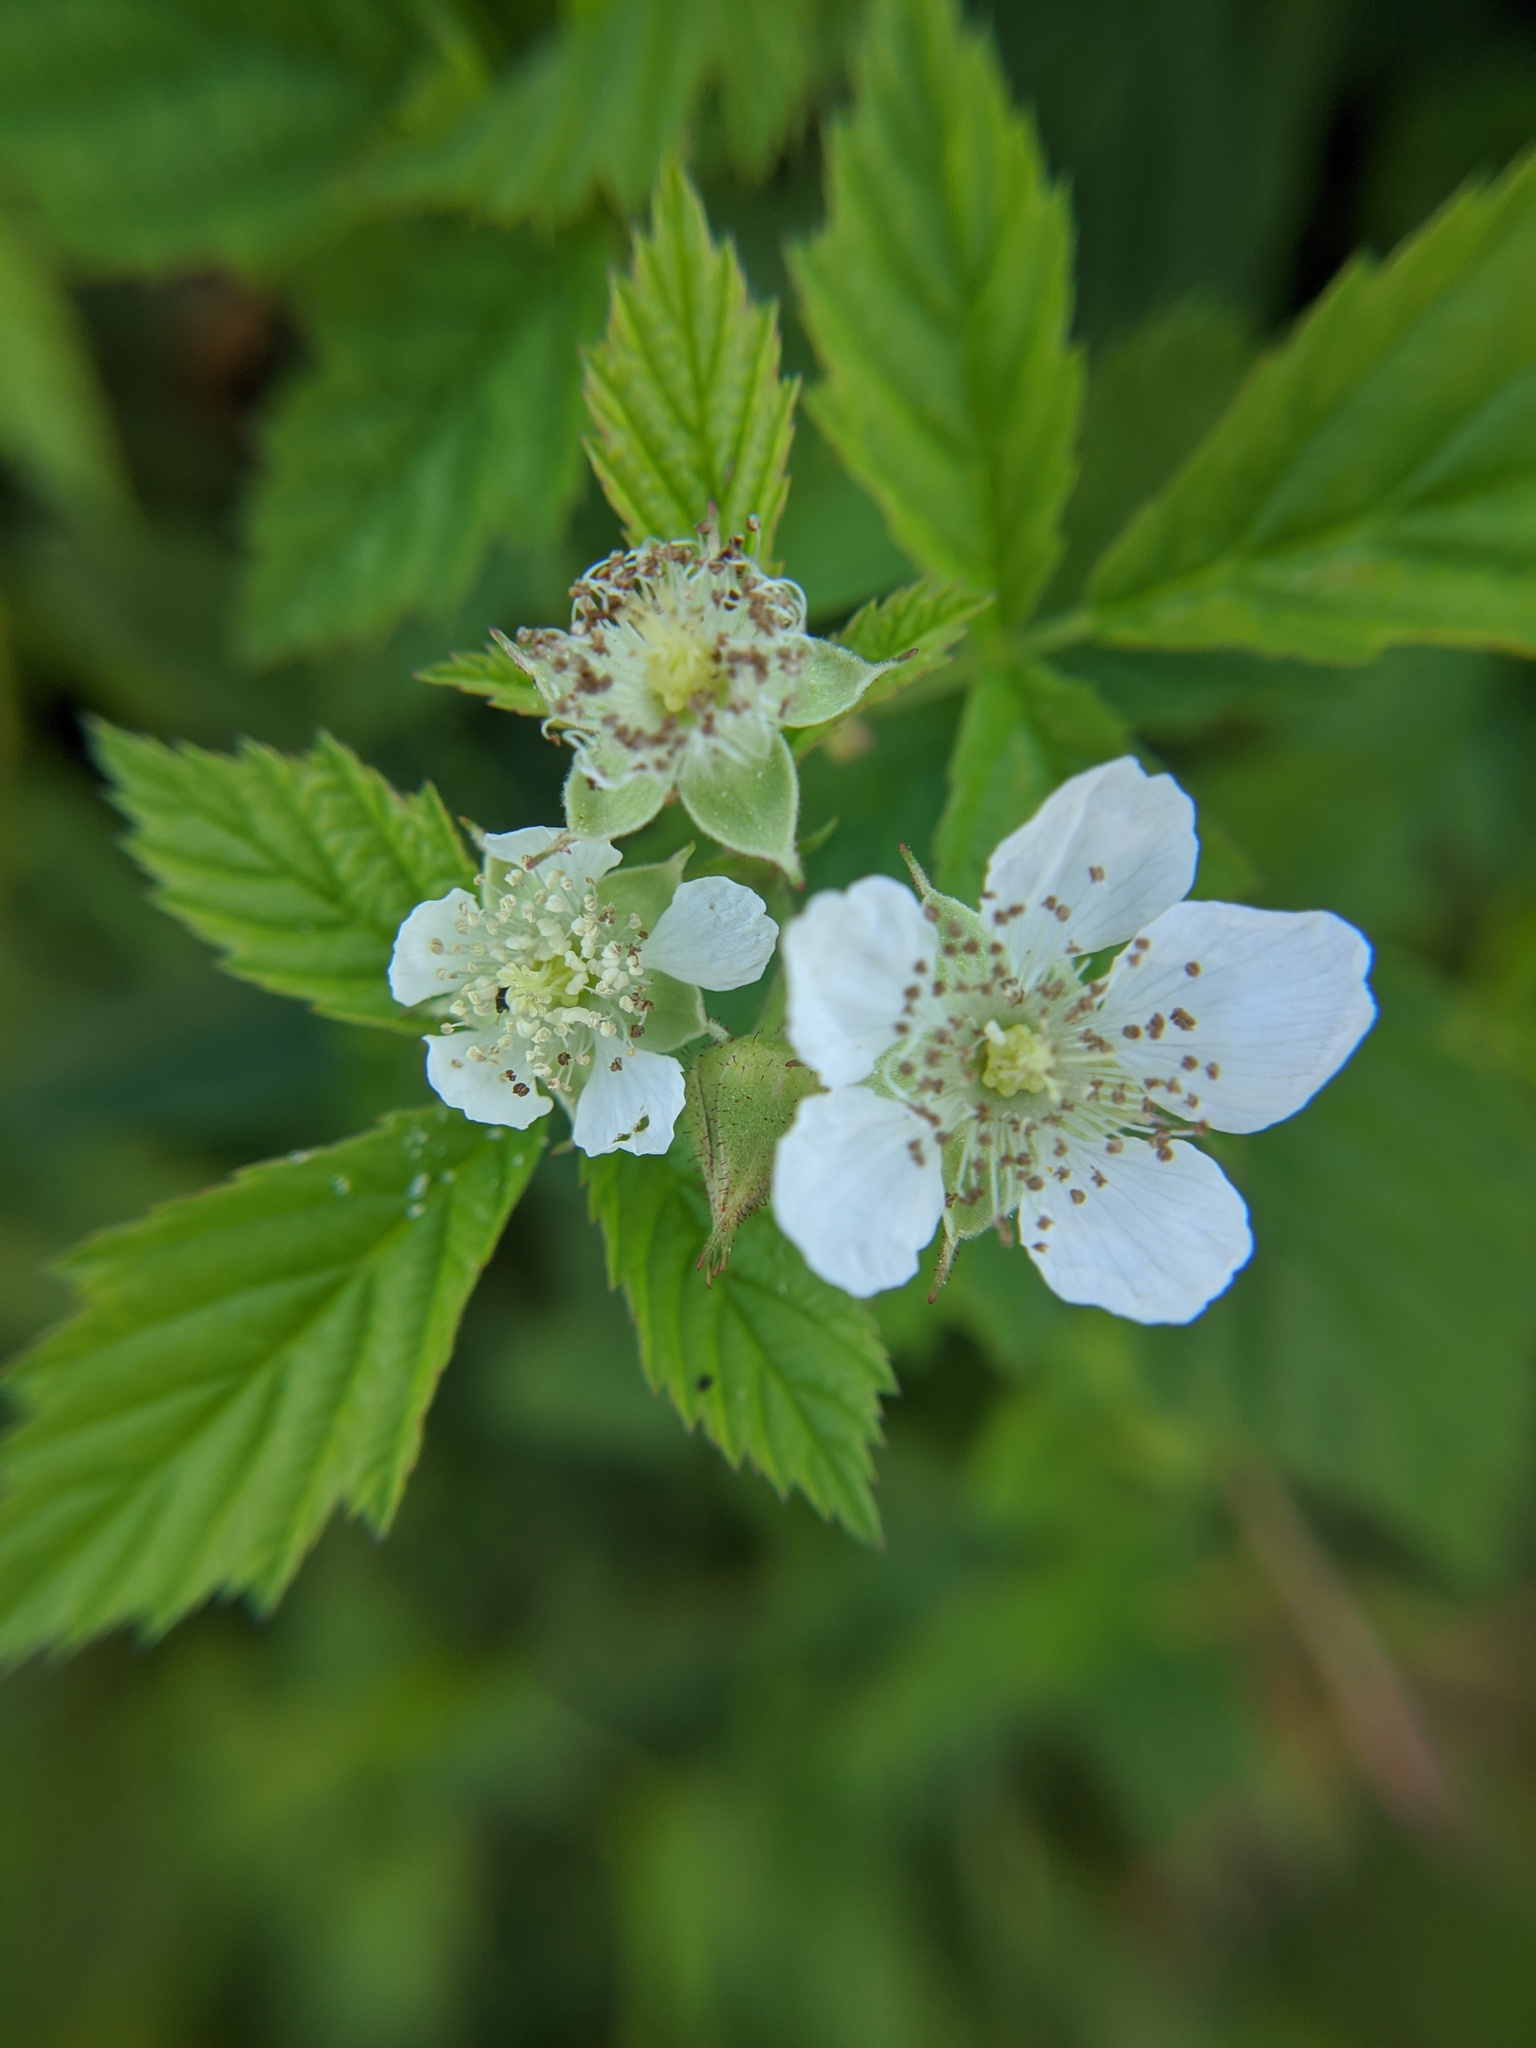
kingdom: Plantae
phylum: Tracheophyta
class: Magnoliopsida
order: Rosales
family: Rosaceae
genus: Rubus
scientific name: Rubus caesius
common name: Dewberry
